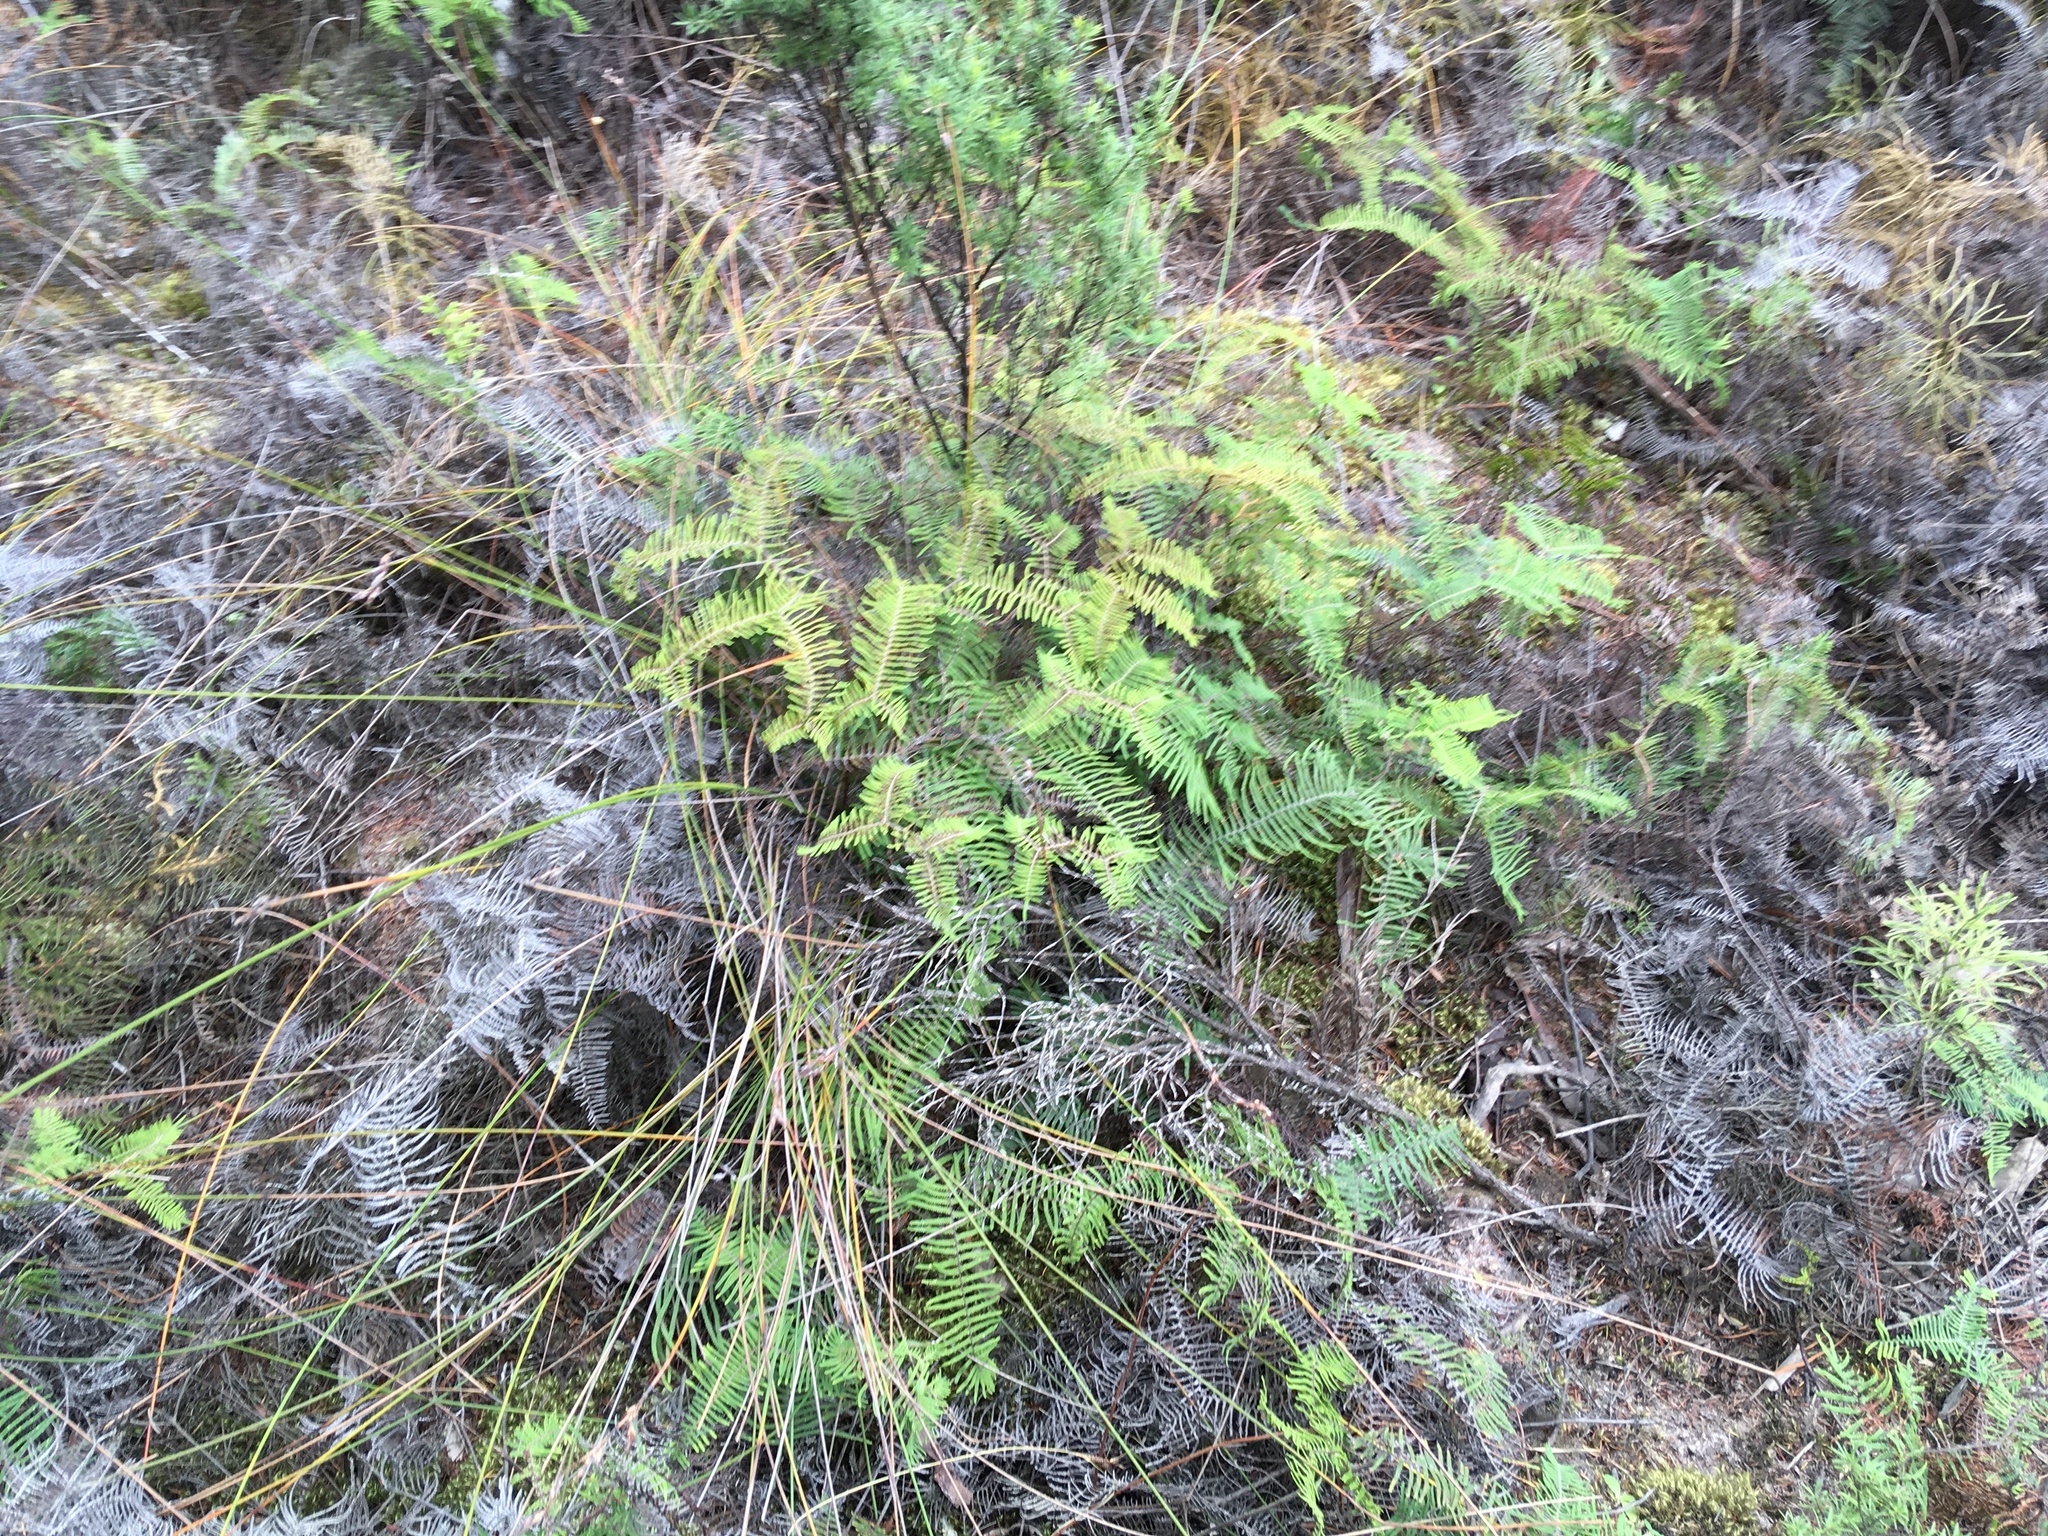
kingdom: Plantae
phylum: Tracheophyta
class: Polypodiopsida
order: Gleicheniales
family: Gleicheniaceae
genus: Gleichenia
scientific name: Gleichenia dicarpa
